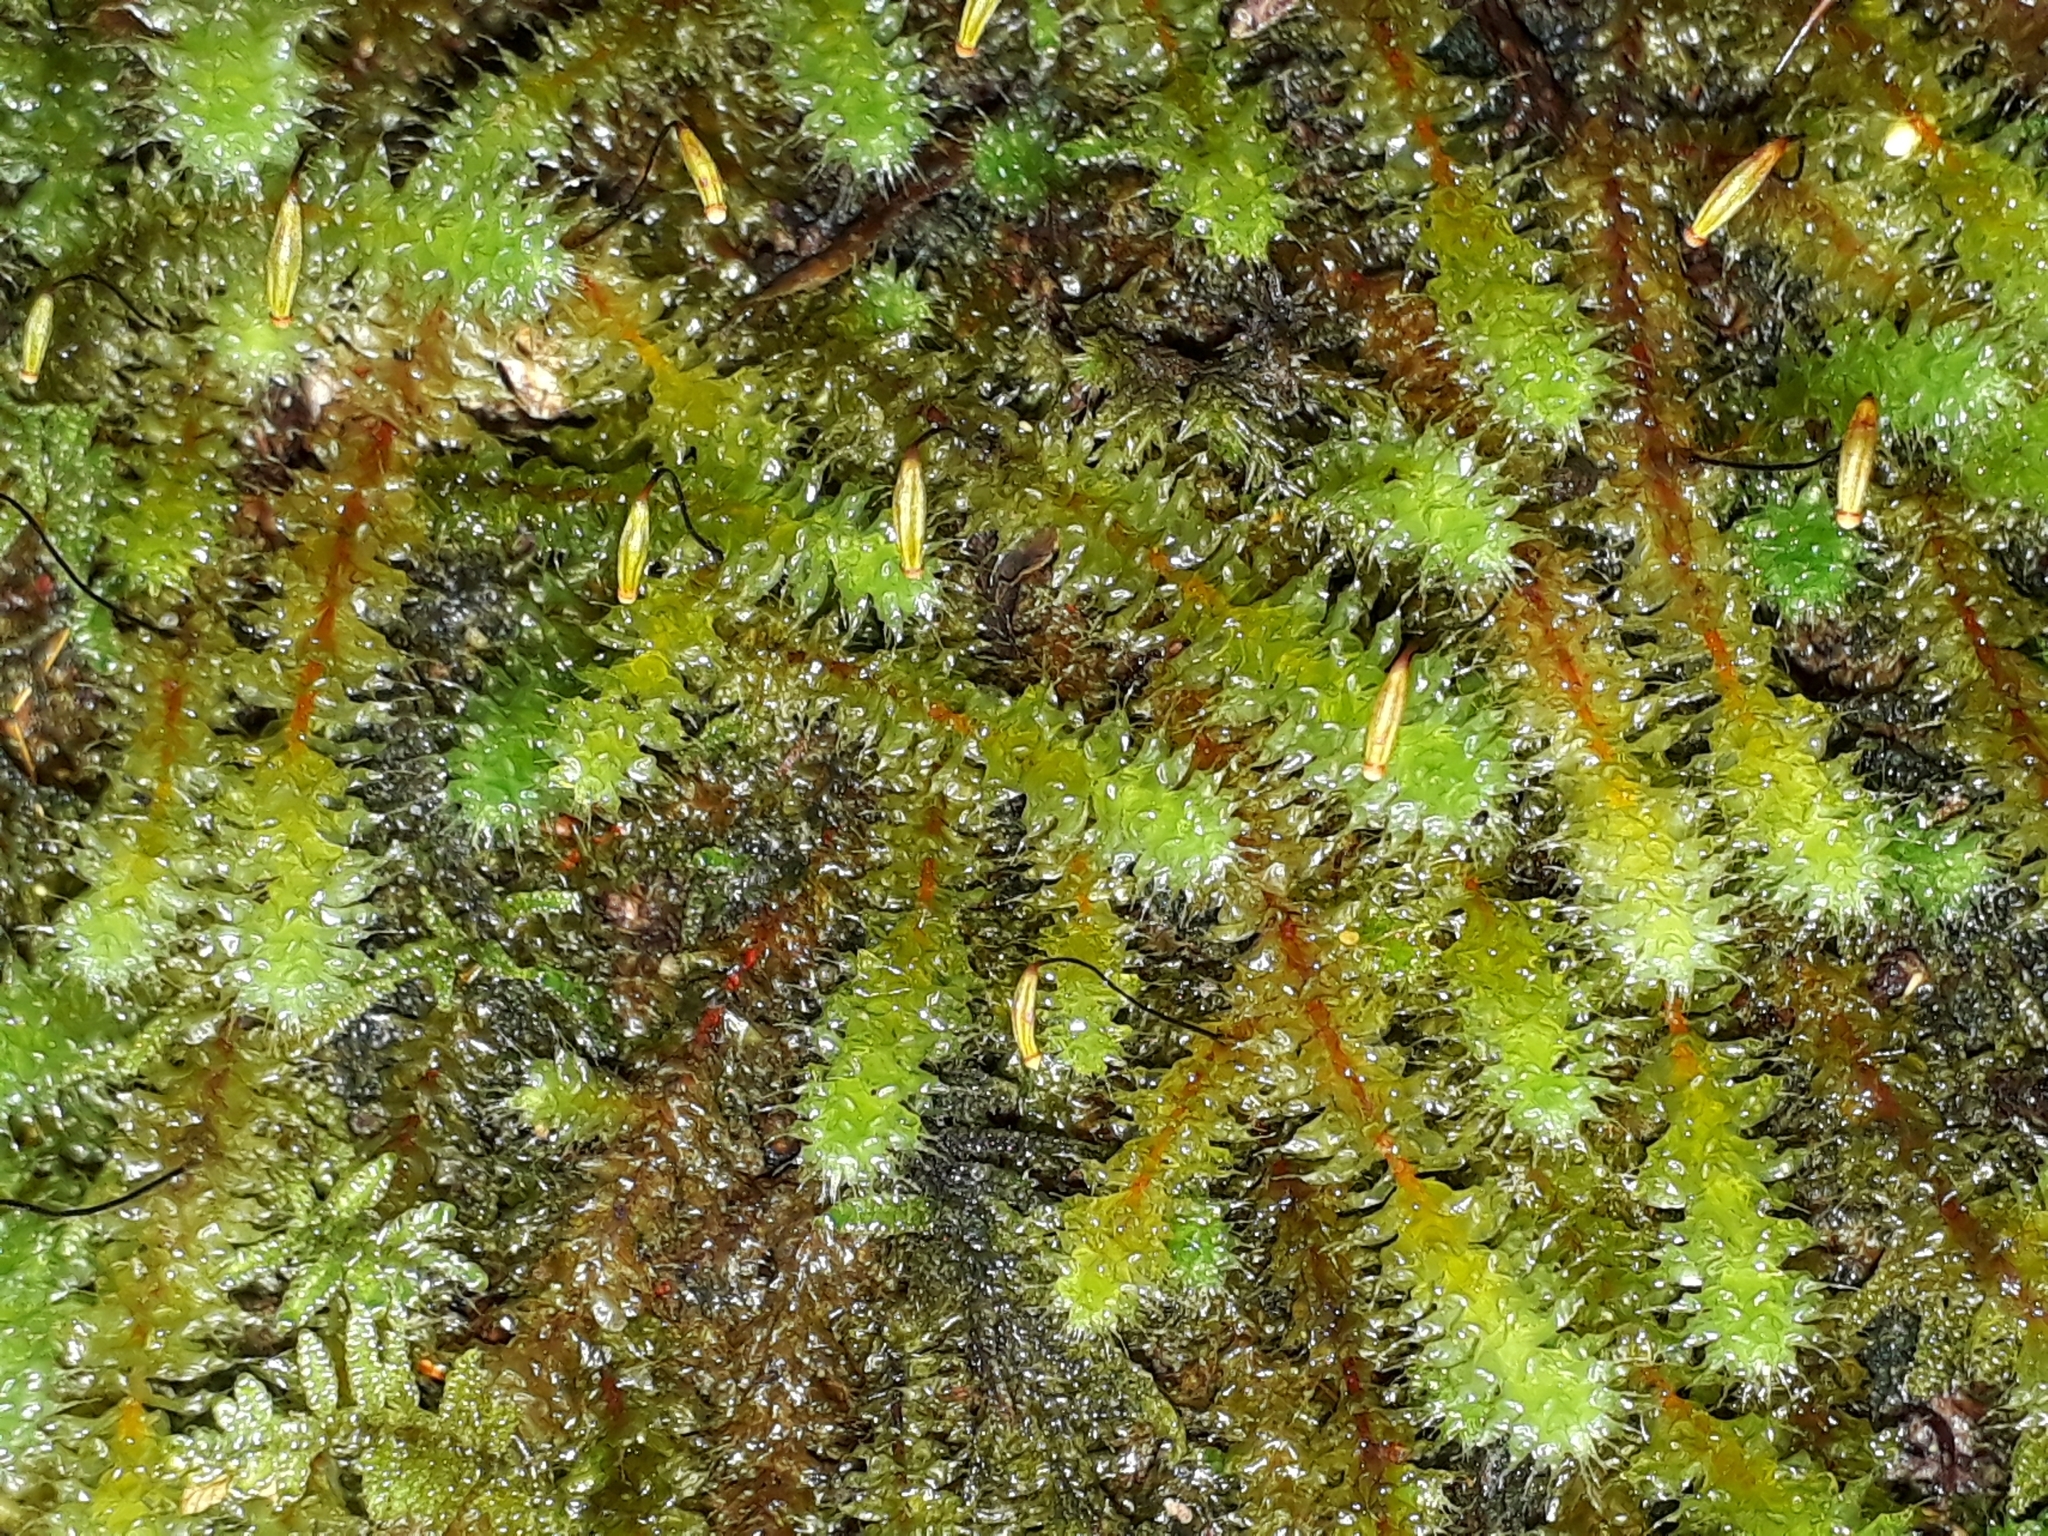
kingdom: Plantae
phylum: Bryophyta
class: Bryopsida
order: Ptychomniales
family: Ptychomniaceae
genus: Ptychomnion
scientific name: Ptychomnion aciculare
